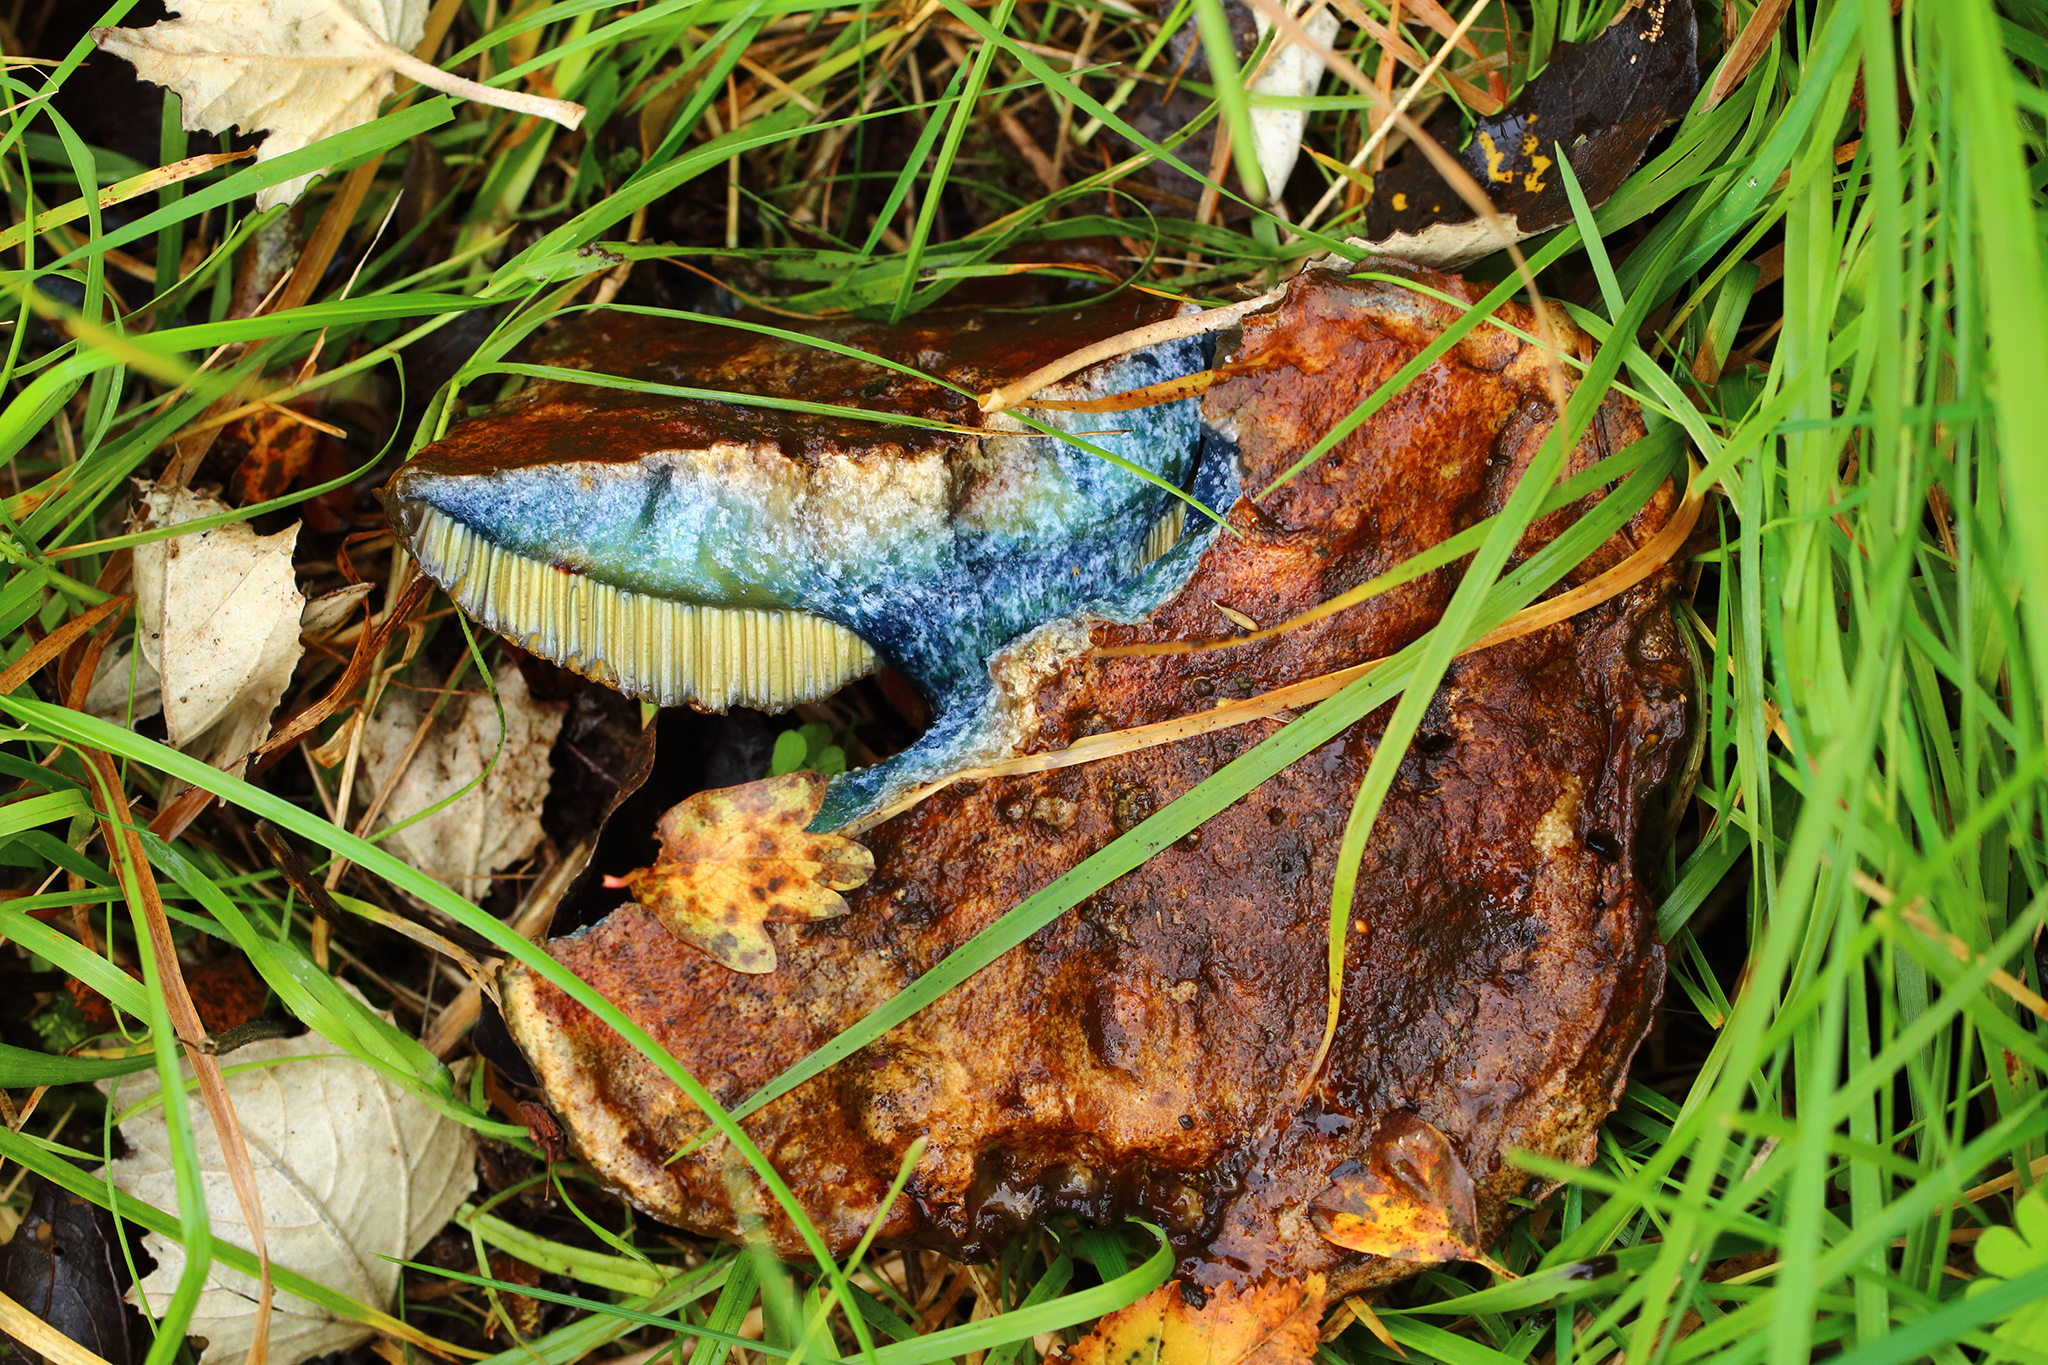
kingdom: Fungi
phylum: Basidiomycota
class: Agaricomycetes
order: Boletales
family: Boletaceae
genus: Cyanoboletus
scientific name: Cyanoboletus pulverulentus
